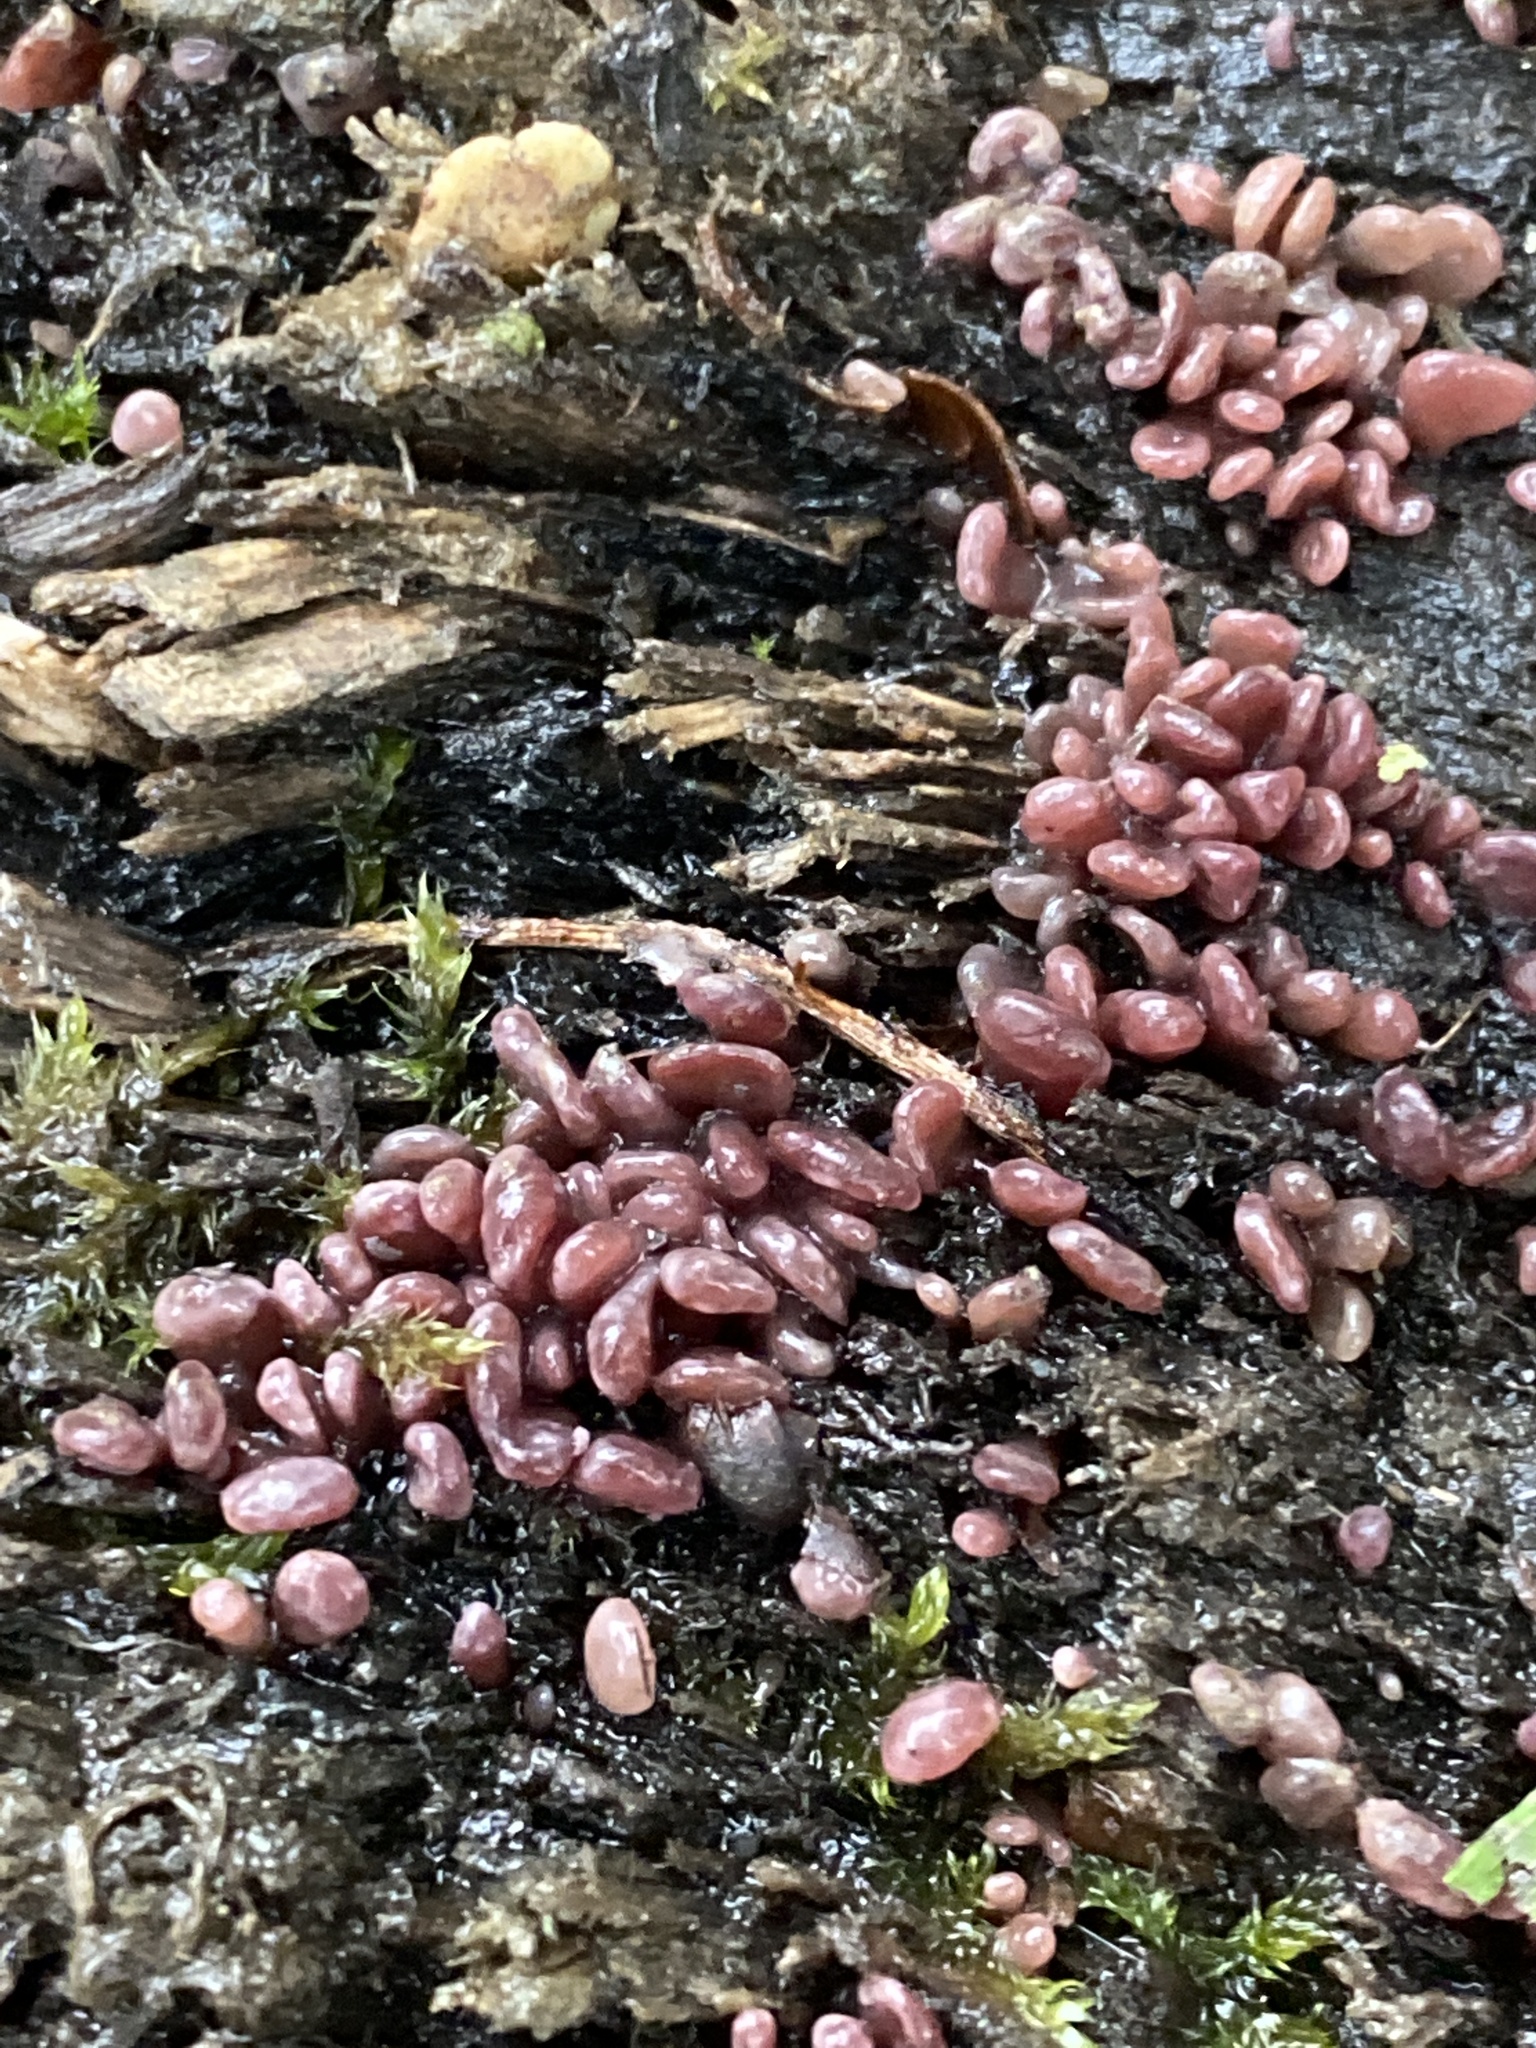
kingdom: Fungi
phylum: Ascomycota
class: Leotiomycetes
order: Helotiales
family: Gelatinodiscaceae
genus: Ascocoryne
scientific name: Ascocoryne sarcoides
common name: Purple jellydisc
